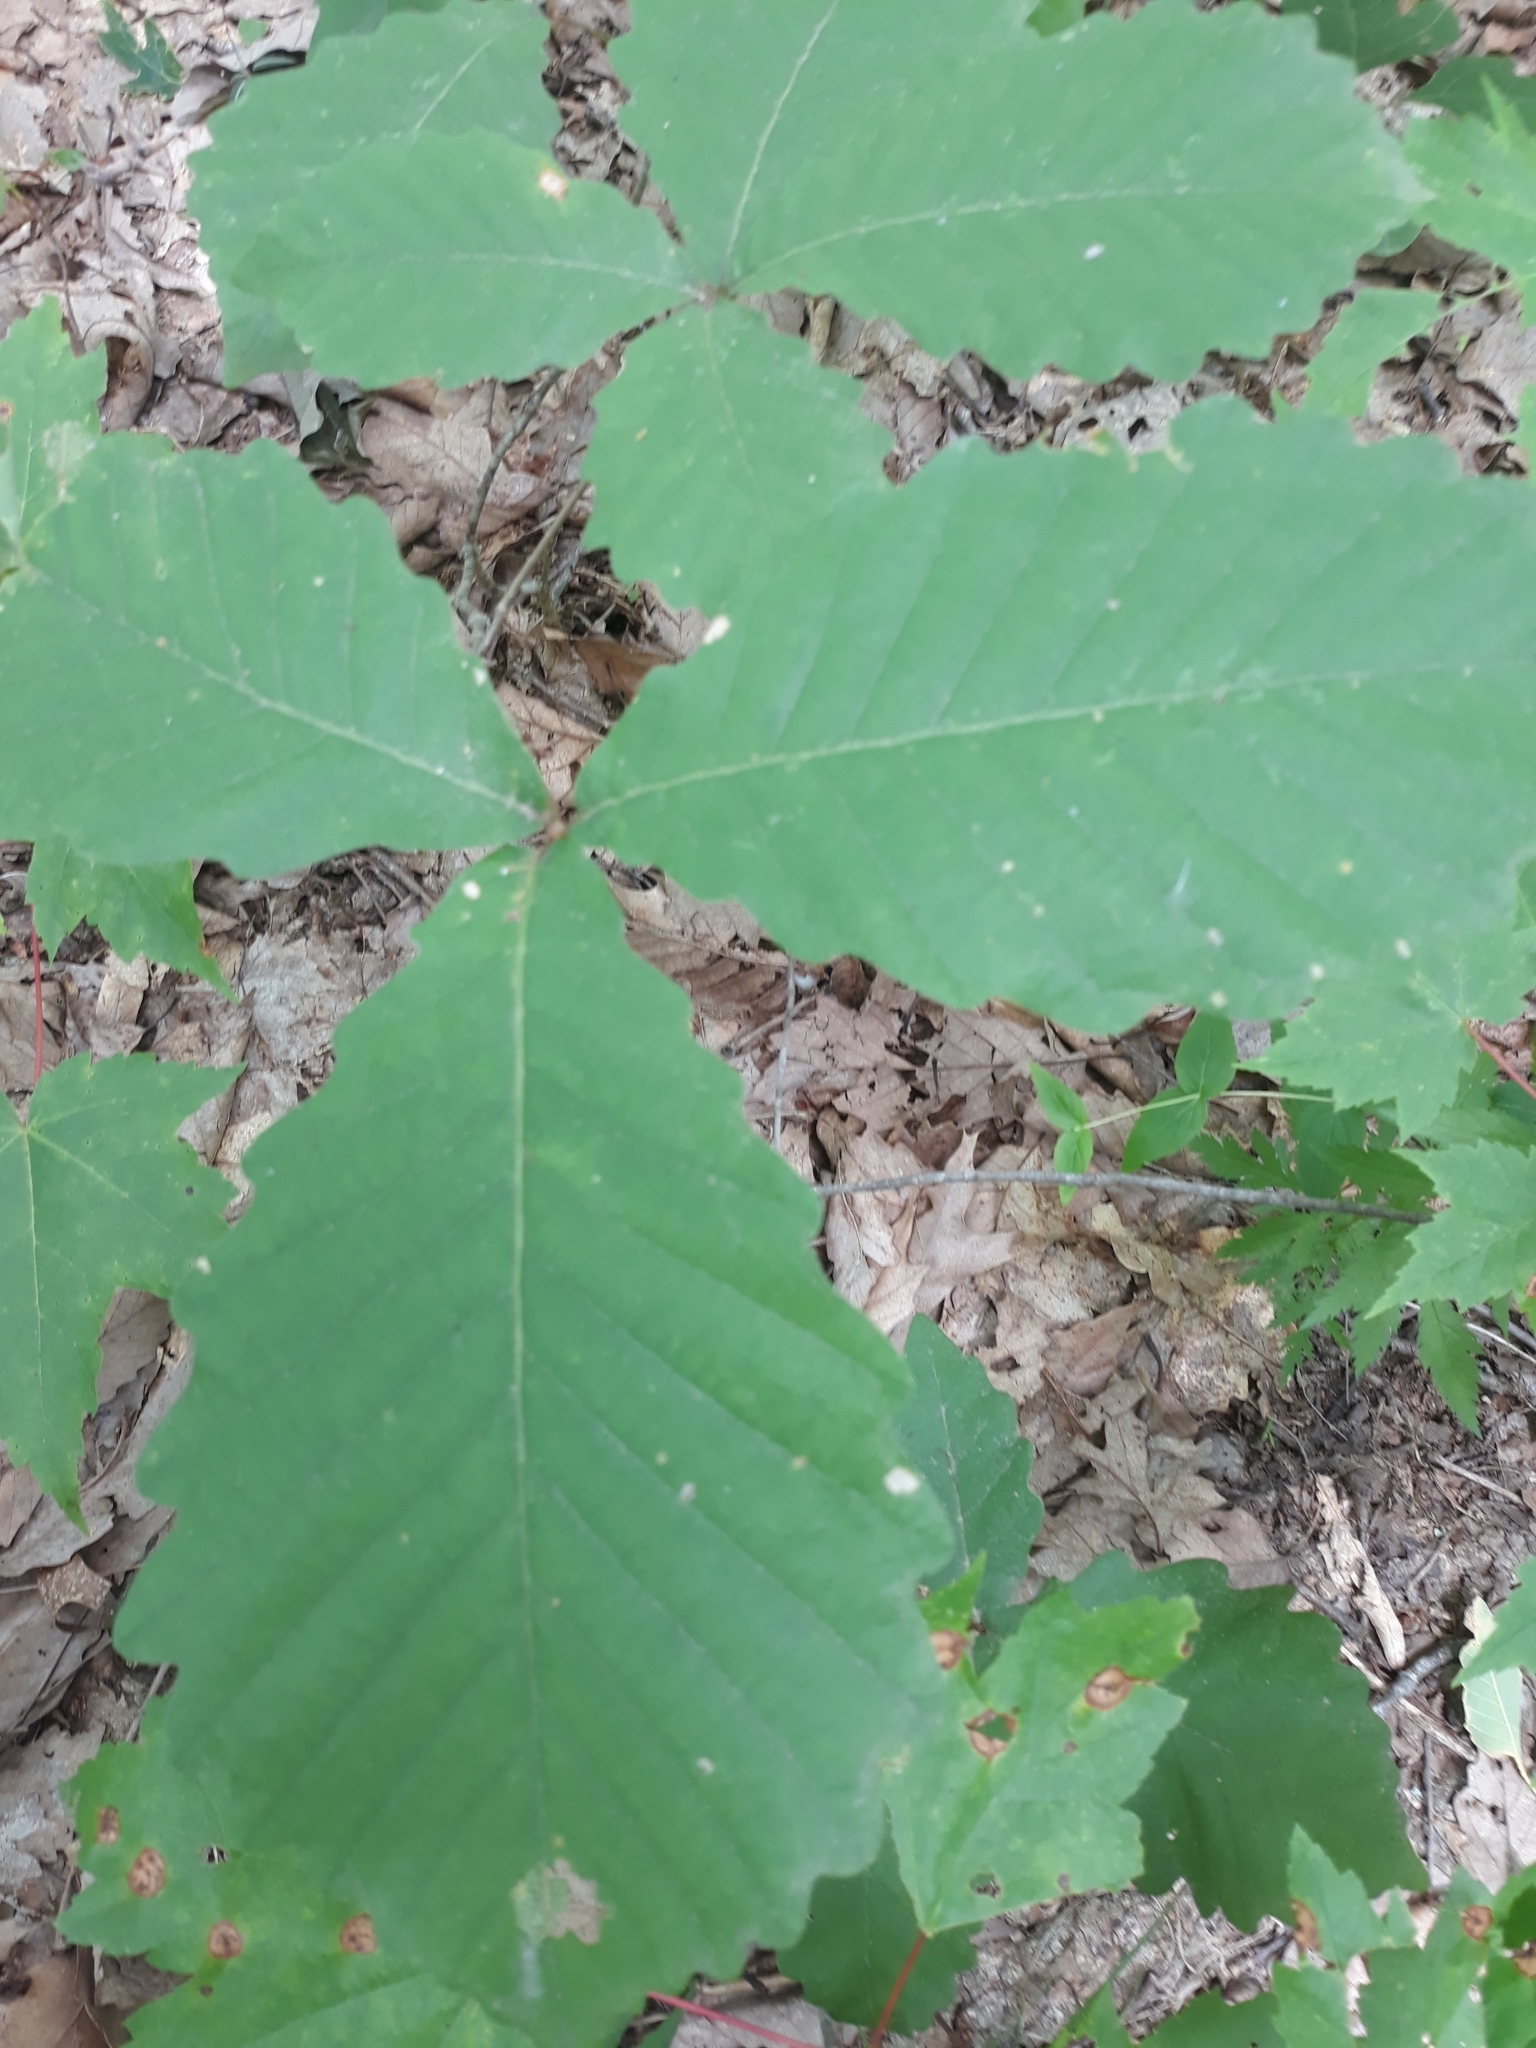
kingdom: Plantae
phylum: Tracheophyta
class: Magnoliopsida
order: Fagales
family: Fagaceae
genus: Quercus
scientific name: Quercus montana
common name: Chestnut oak
